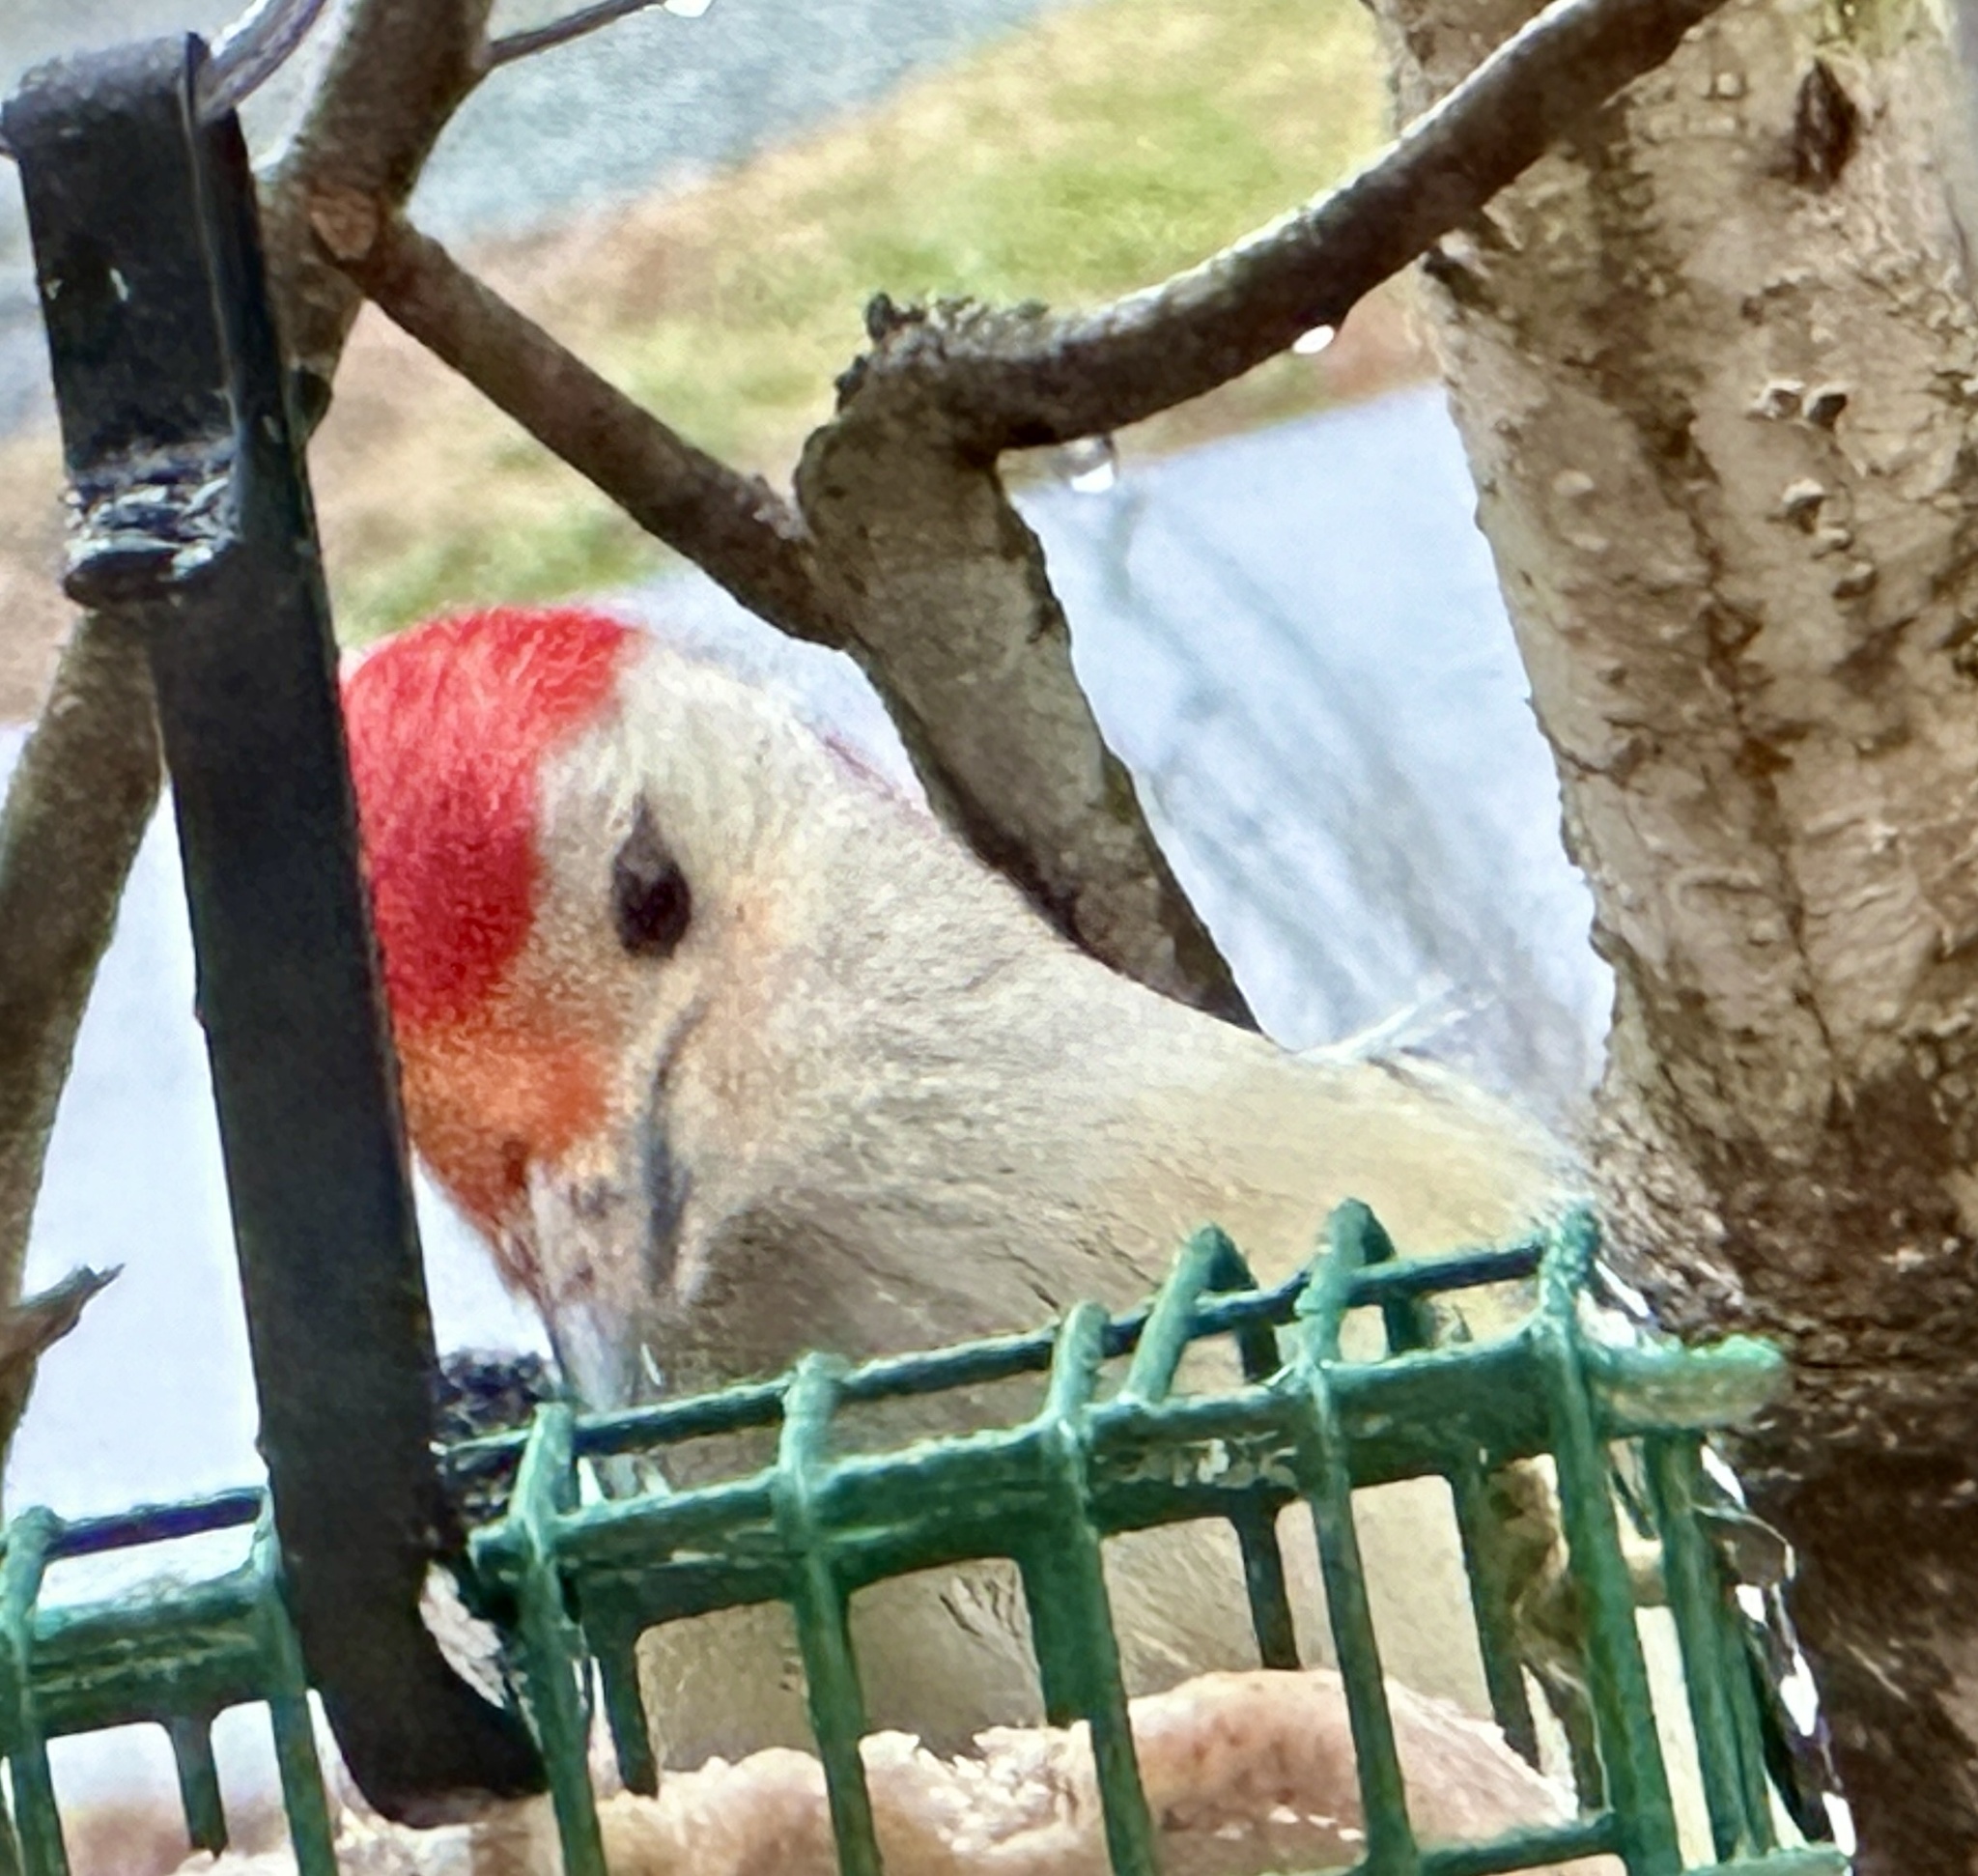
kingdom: Animalia
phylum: Chordata
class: Aves
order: Piciformes
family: Picidae
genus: Melanerpes
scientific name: Melanerpes carolinus
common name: Red-bellied woodpecker
